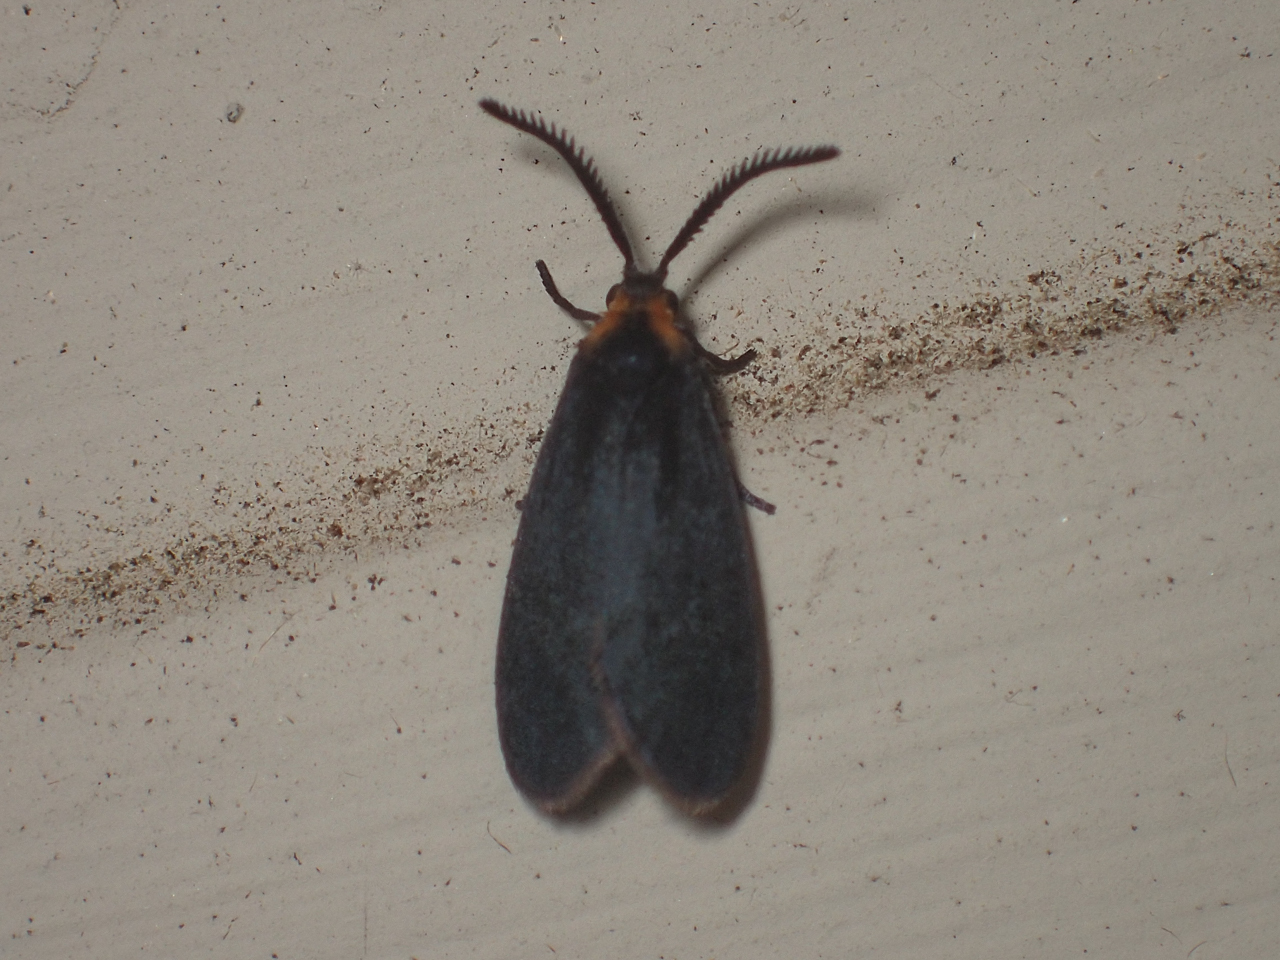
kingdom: Animalia
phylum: Arthropoda
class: Insecta
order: Lepidoptera
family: Zygaenidae
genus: Acoloithus
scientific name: Acoloithus falsarius
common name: Clemens' false skeletonizer
